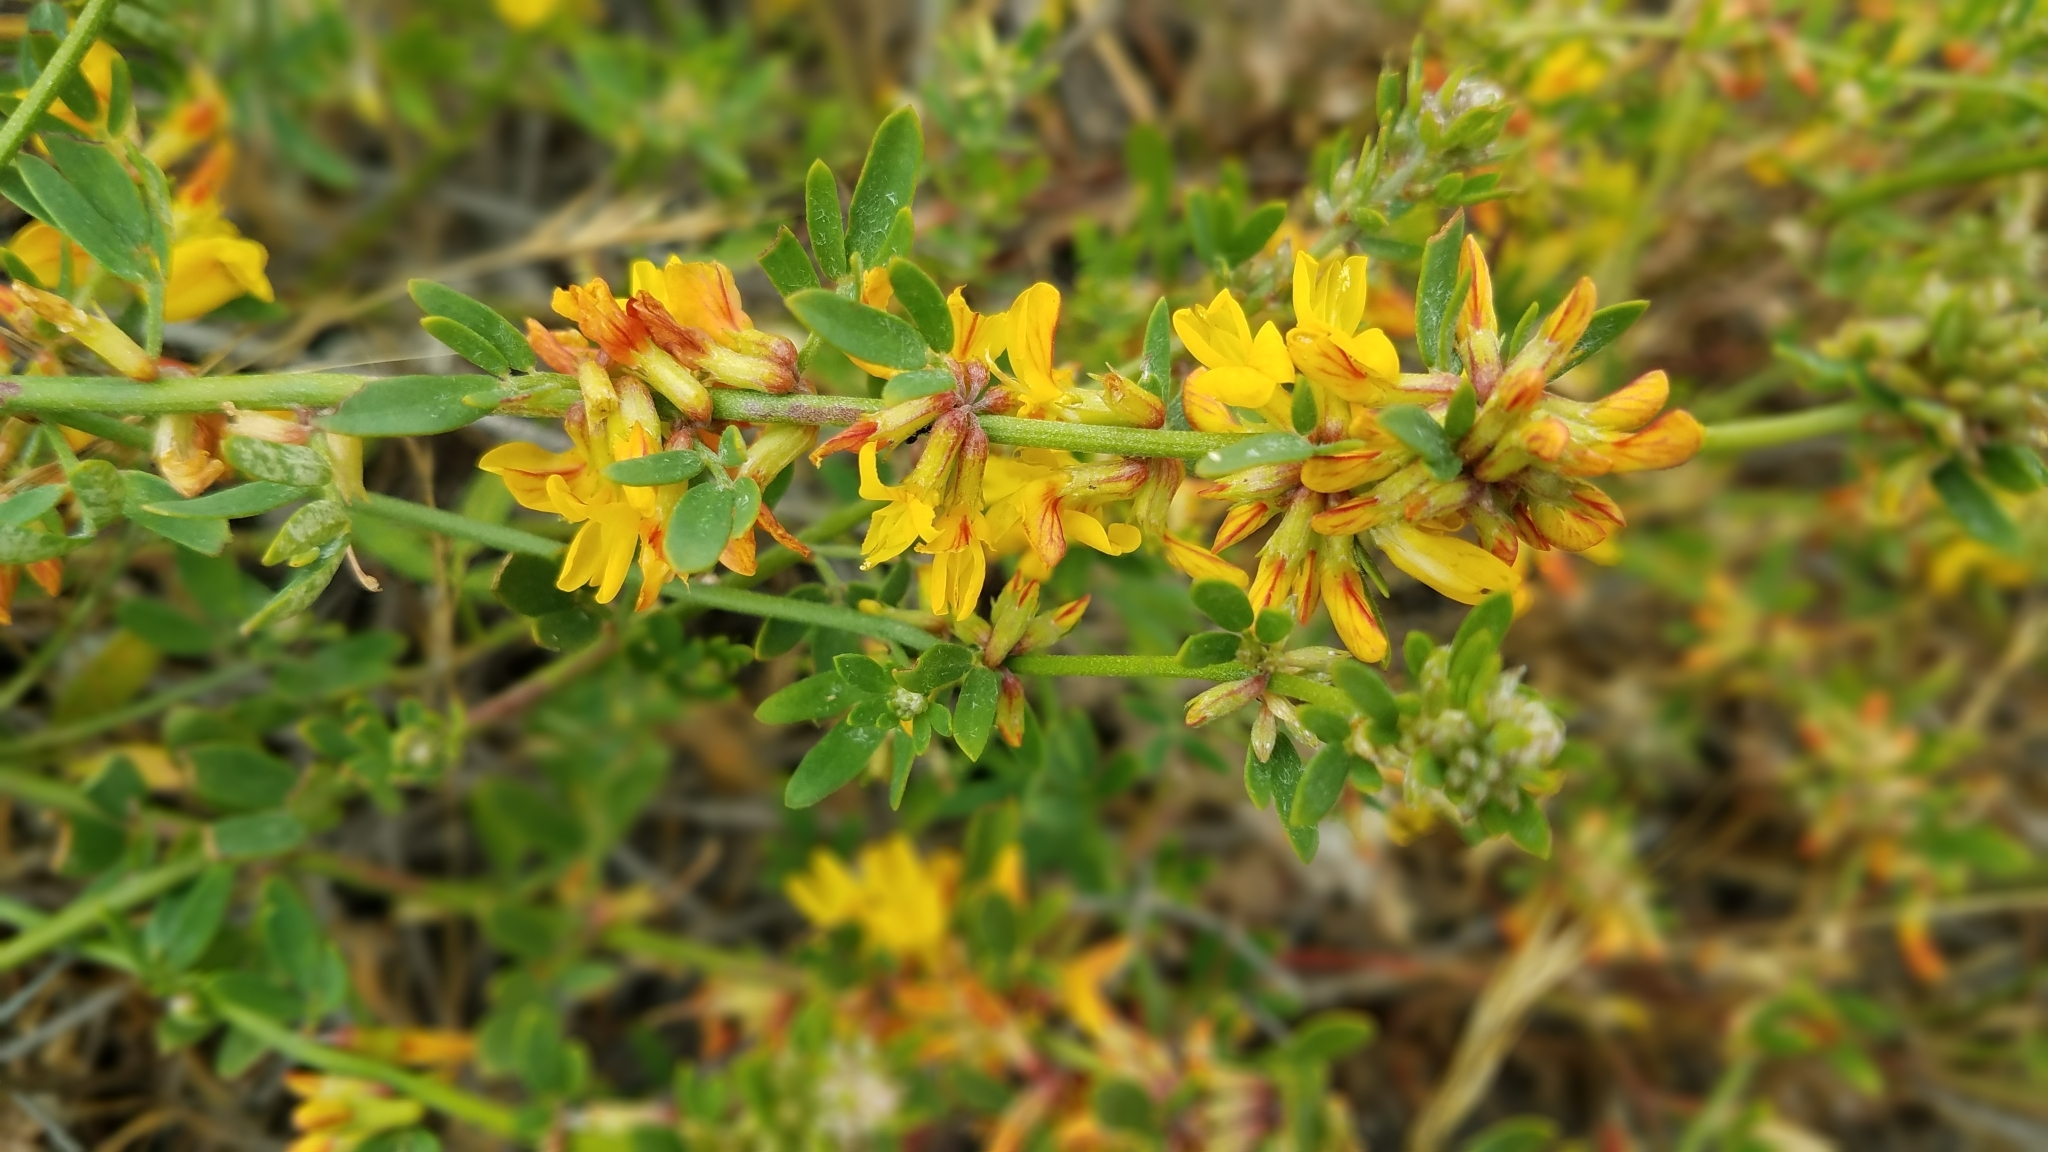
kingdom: Plantae
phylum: Tracheophyta
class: Magnoliopsida
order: Fabales
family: Fabaceae
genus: Acmispon
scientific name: Acmispon glaber
